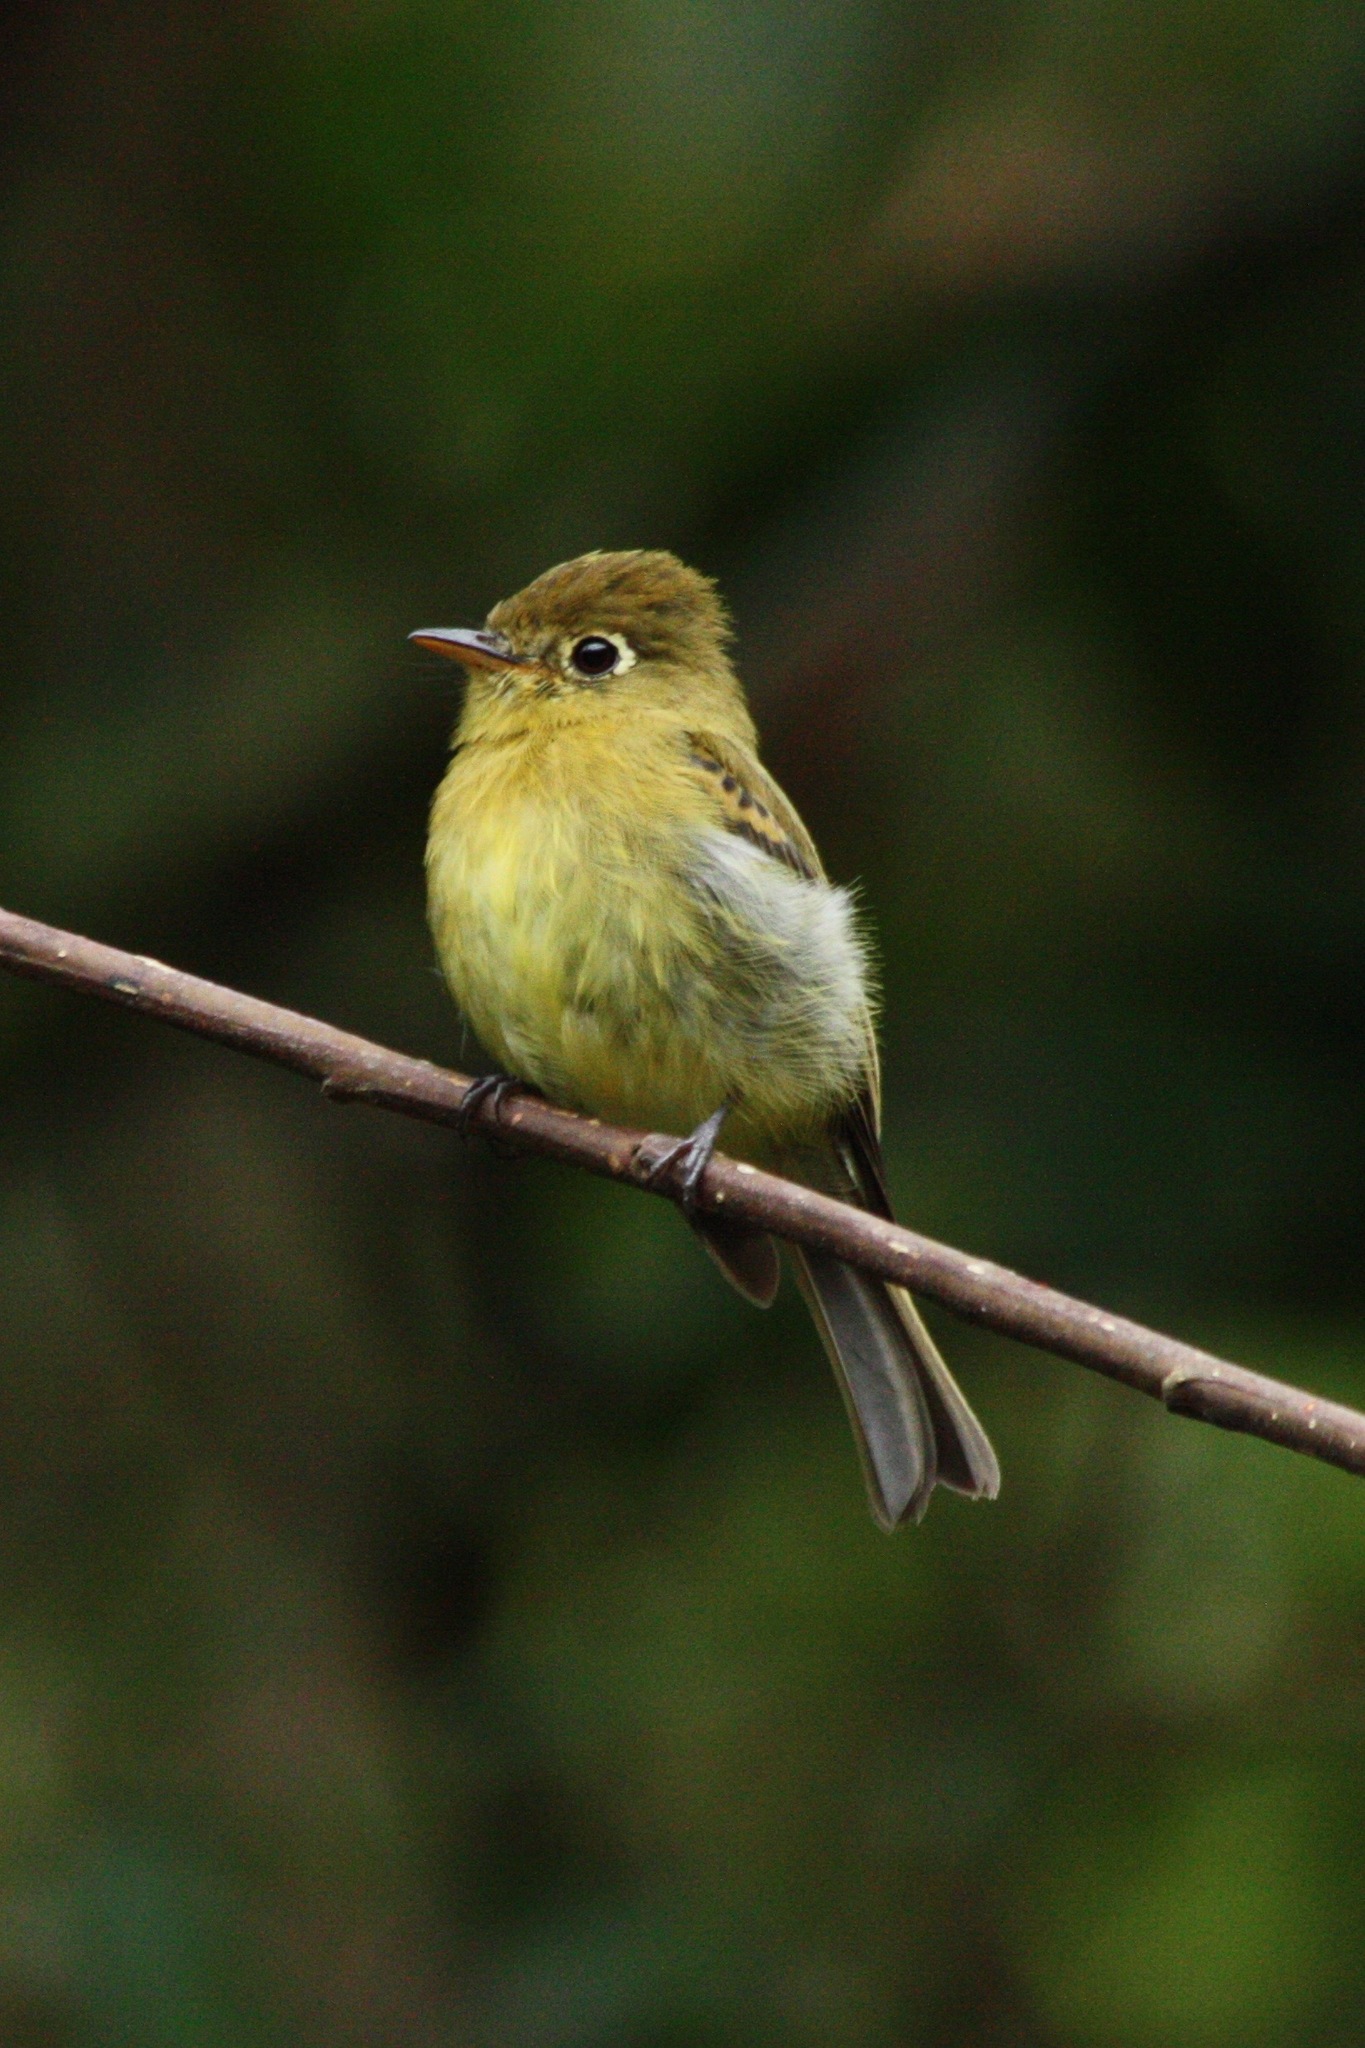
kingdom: Animalia
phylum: Chordata
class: Aves
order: Passeriformes
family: Tyrannidae
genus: Empidonax
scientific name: Empidonax flavescens
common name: Yellowish flycatcher
